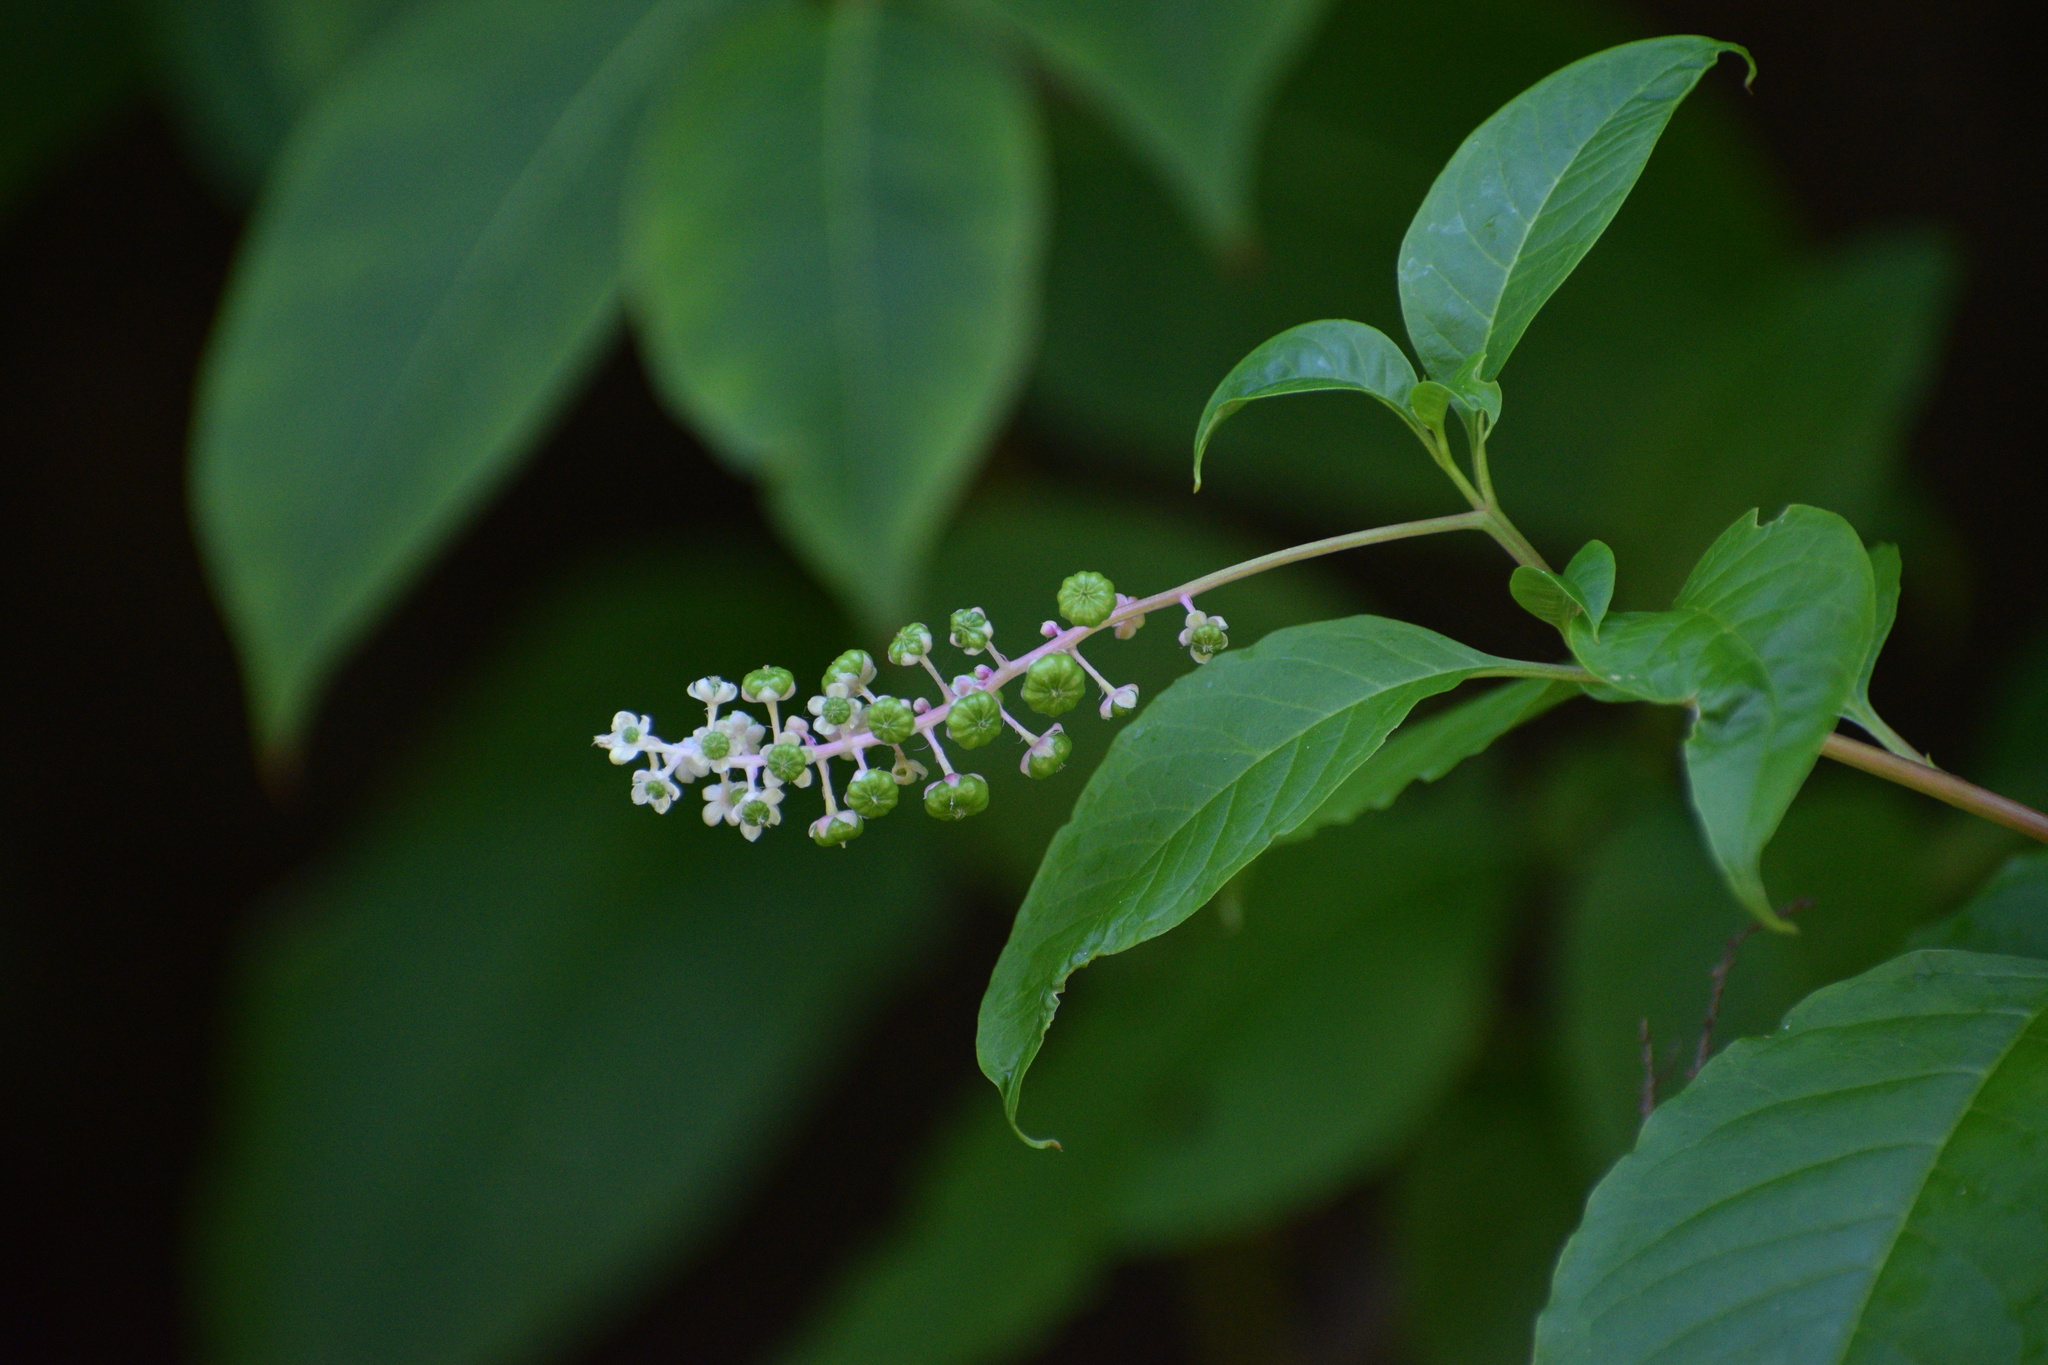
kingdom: Plantae
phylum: Tracheophyta
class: Magnoliopsida
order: Caryophyllales
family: Phytolaccaceae
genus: Phytolacca
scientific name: Phytolacca americana
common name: American pokeweed
